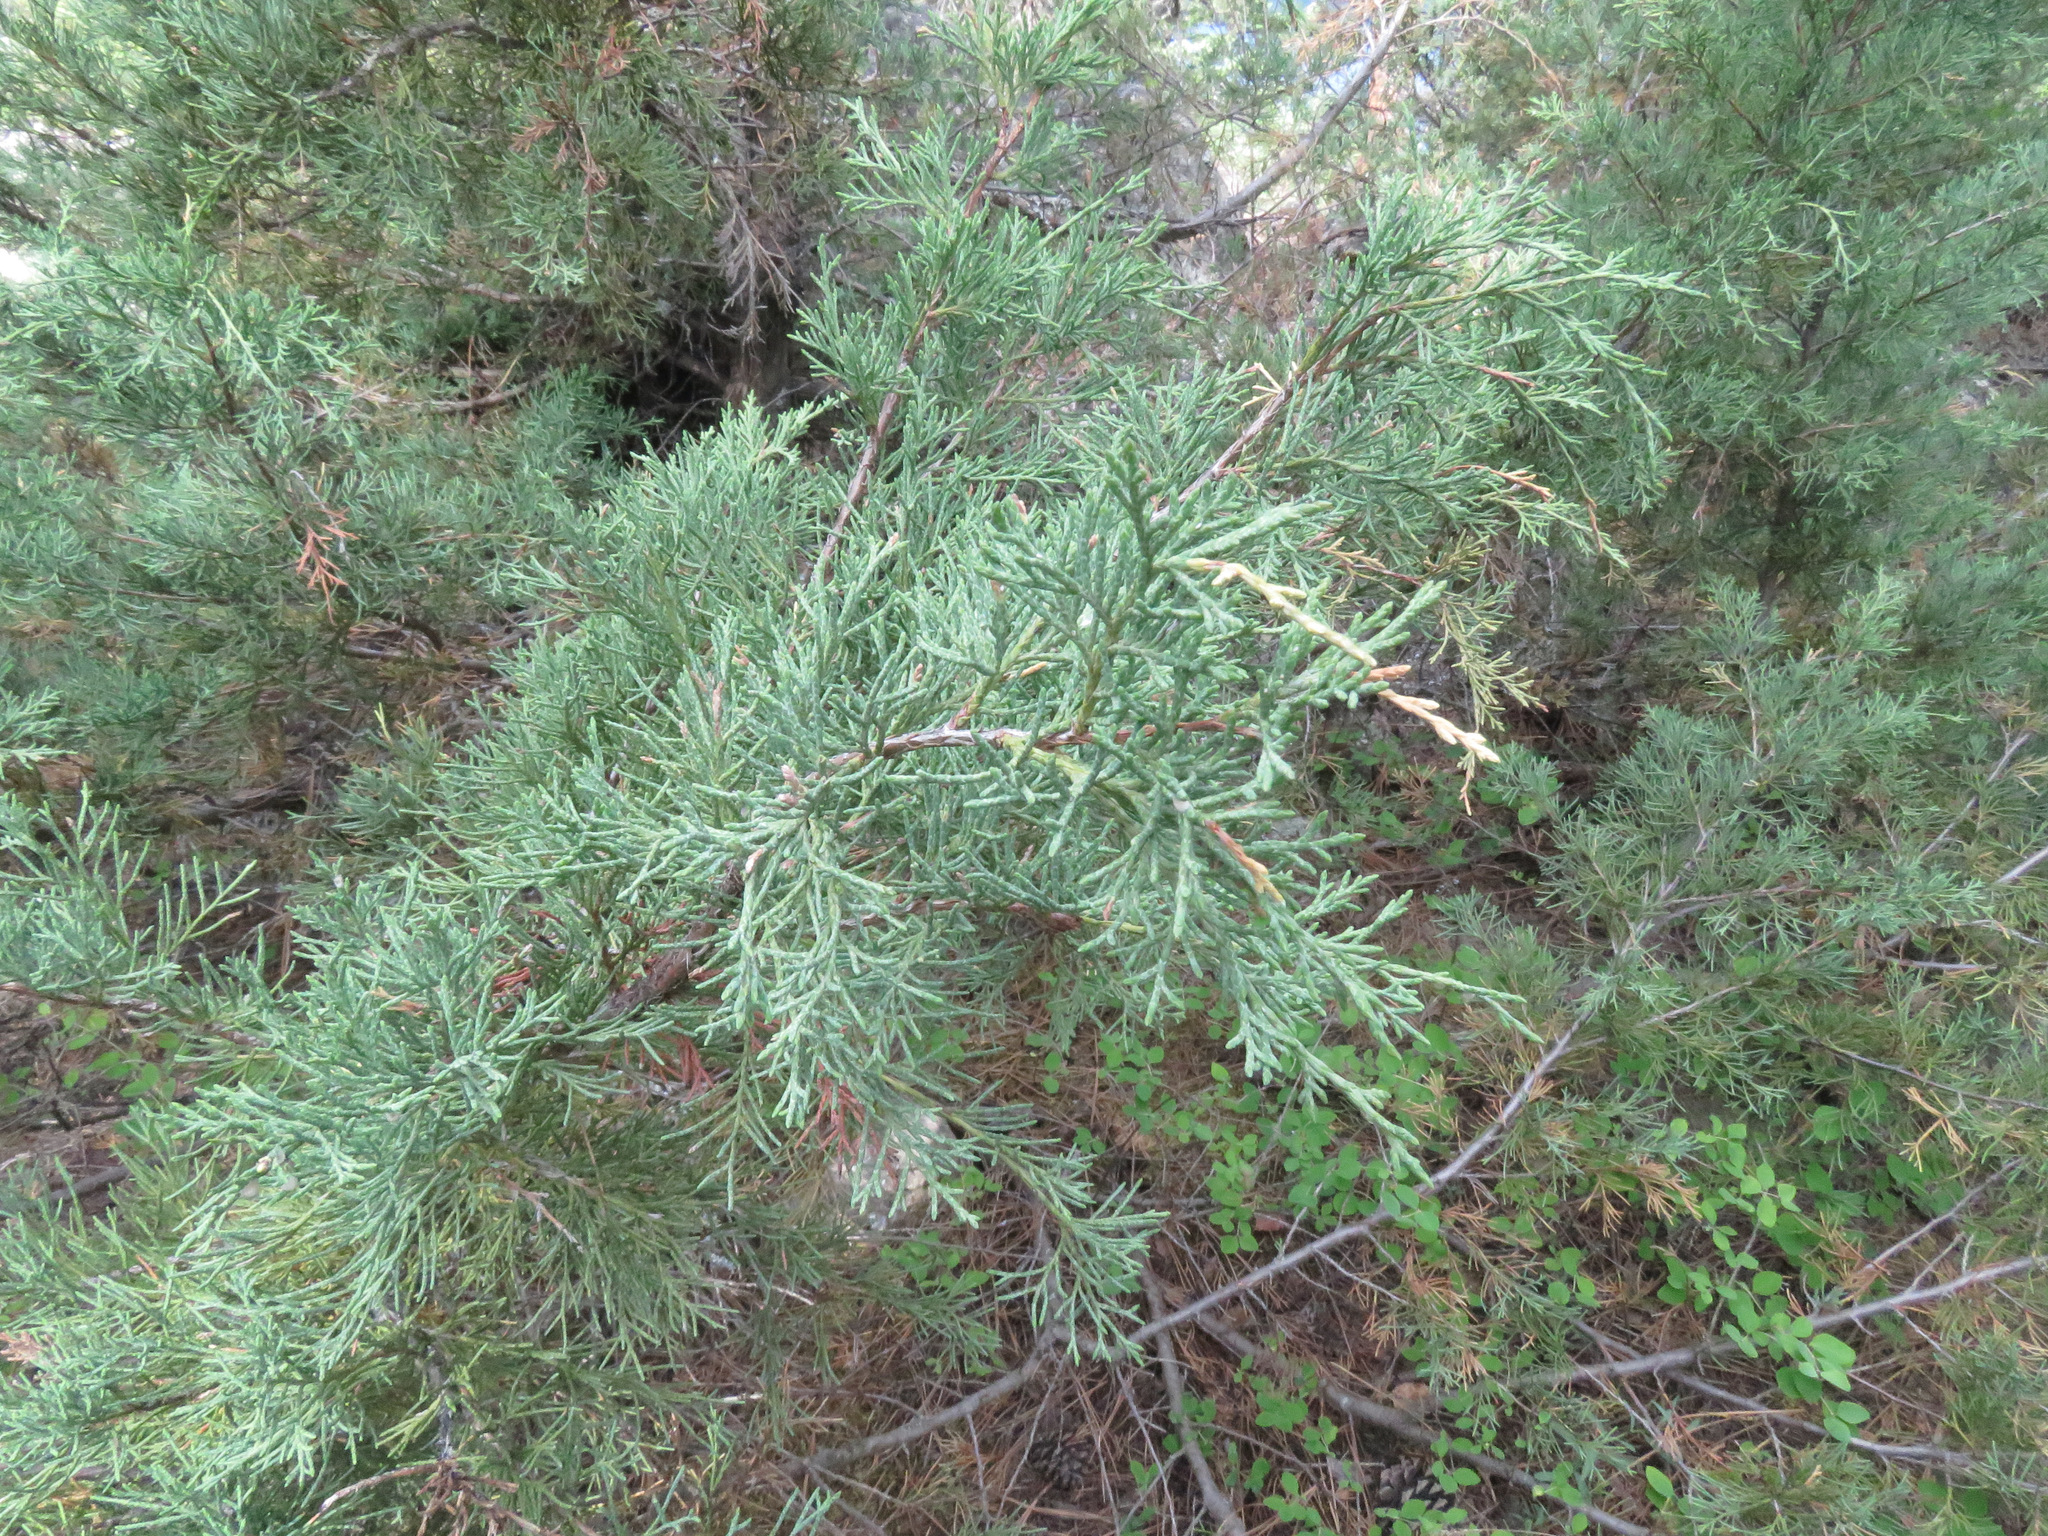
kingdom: Plantae
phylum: Tracheophyta
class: Pinopsida
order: Pinales
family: Cupressaceae
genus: Juniperus
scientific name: Juniperus scopulorum
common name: Rocky mountain juniper
